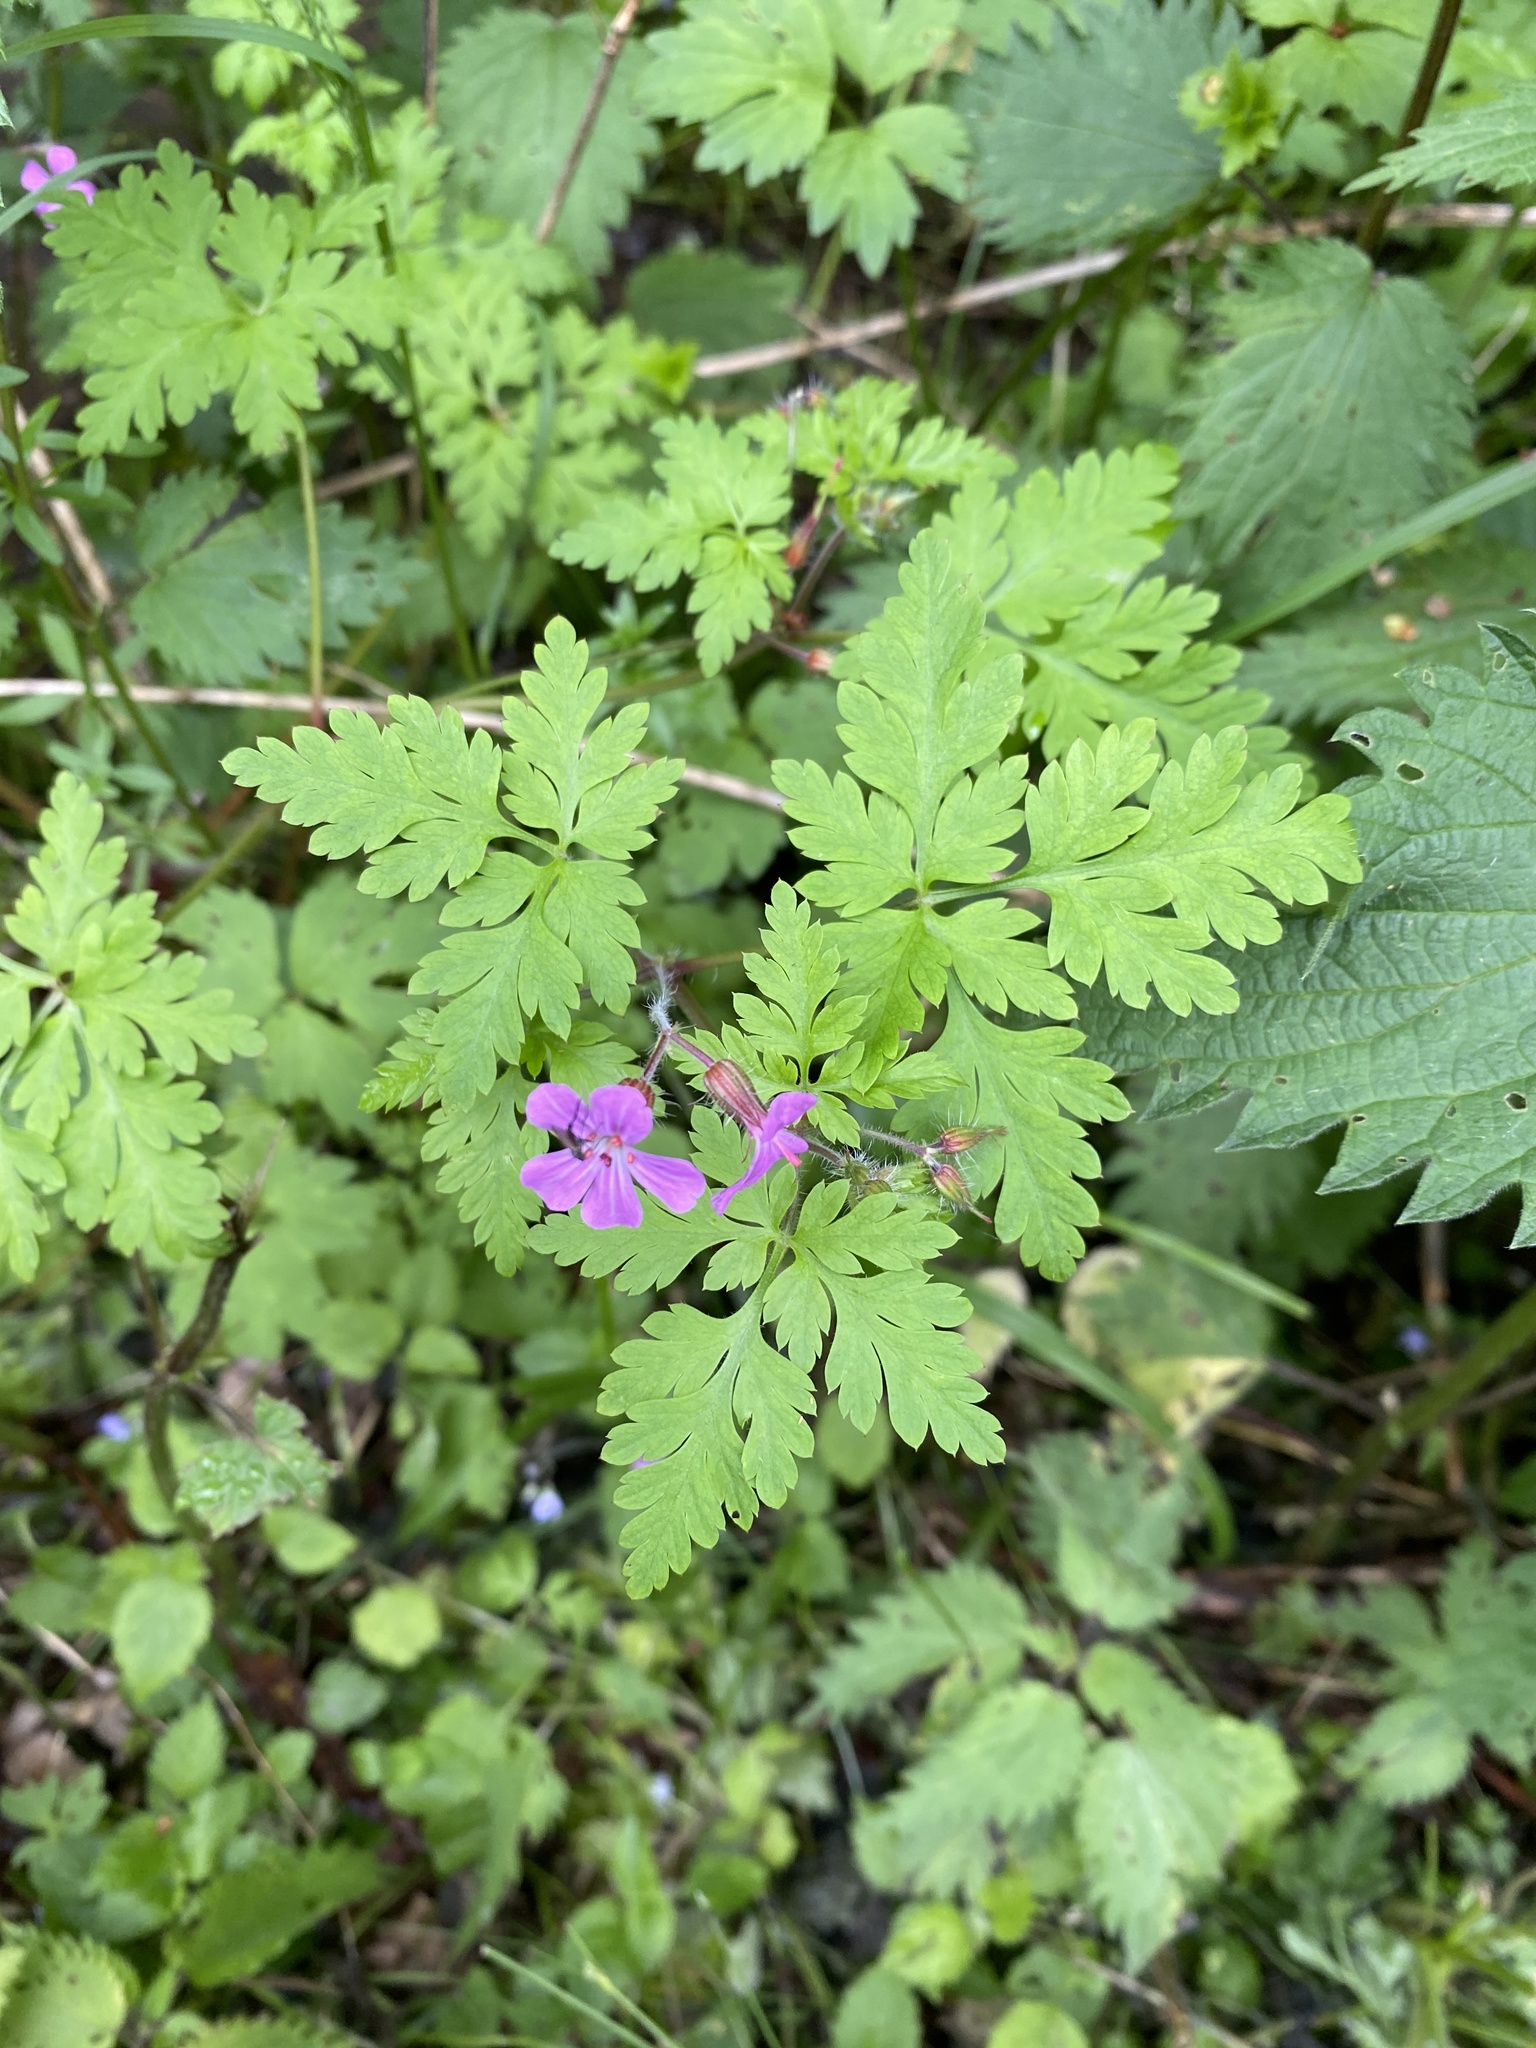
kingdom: Plantae
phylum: Tracheophyta
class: Magnoliopsida
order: Geraniales
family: Geraniaceae
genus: Geranium
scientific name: Geranium robertianum
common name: Herb-robert
